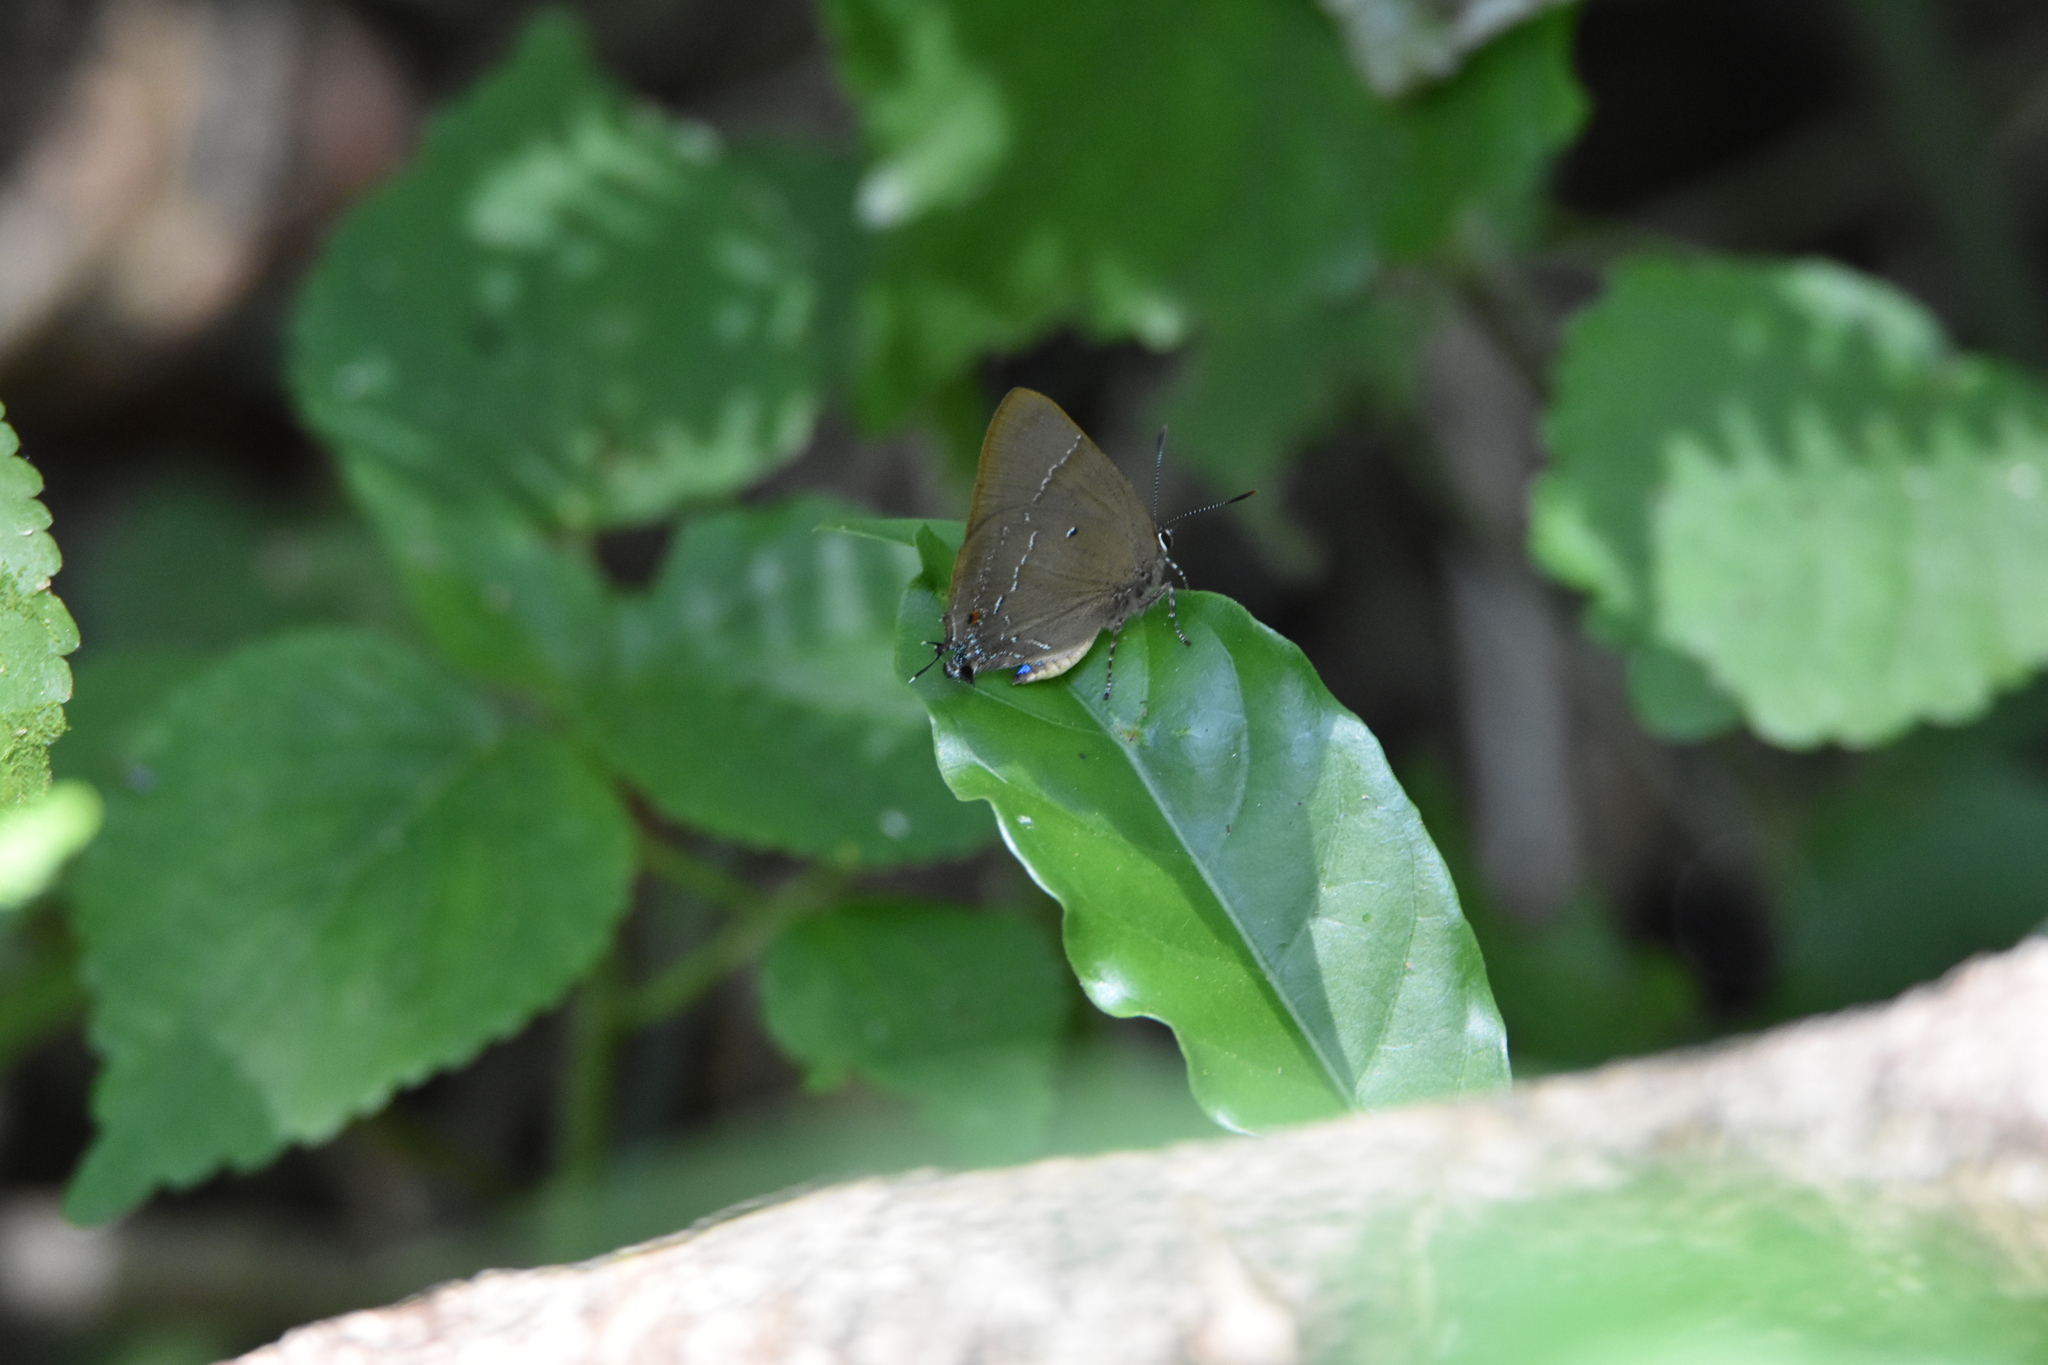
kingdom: Animalia
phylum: Arthropoda
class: Insecta
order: Lepidoptera
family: Lycaenidae
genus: Parrhasius
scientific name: Parrhasius orgia
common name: Variable hairstreak
